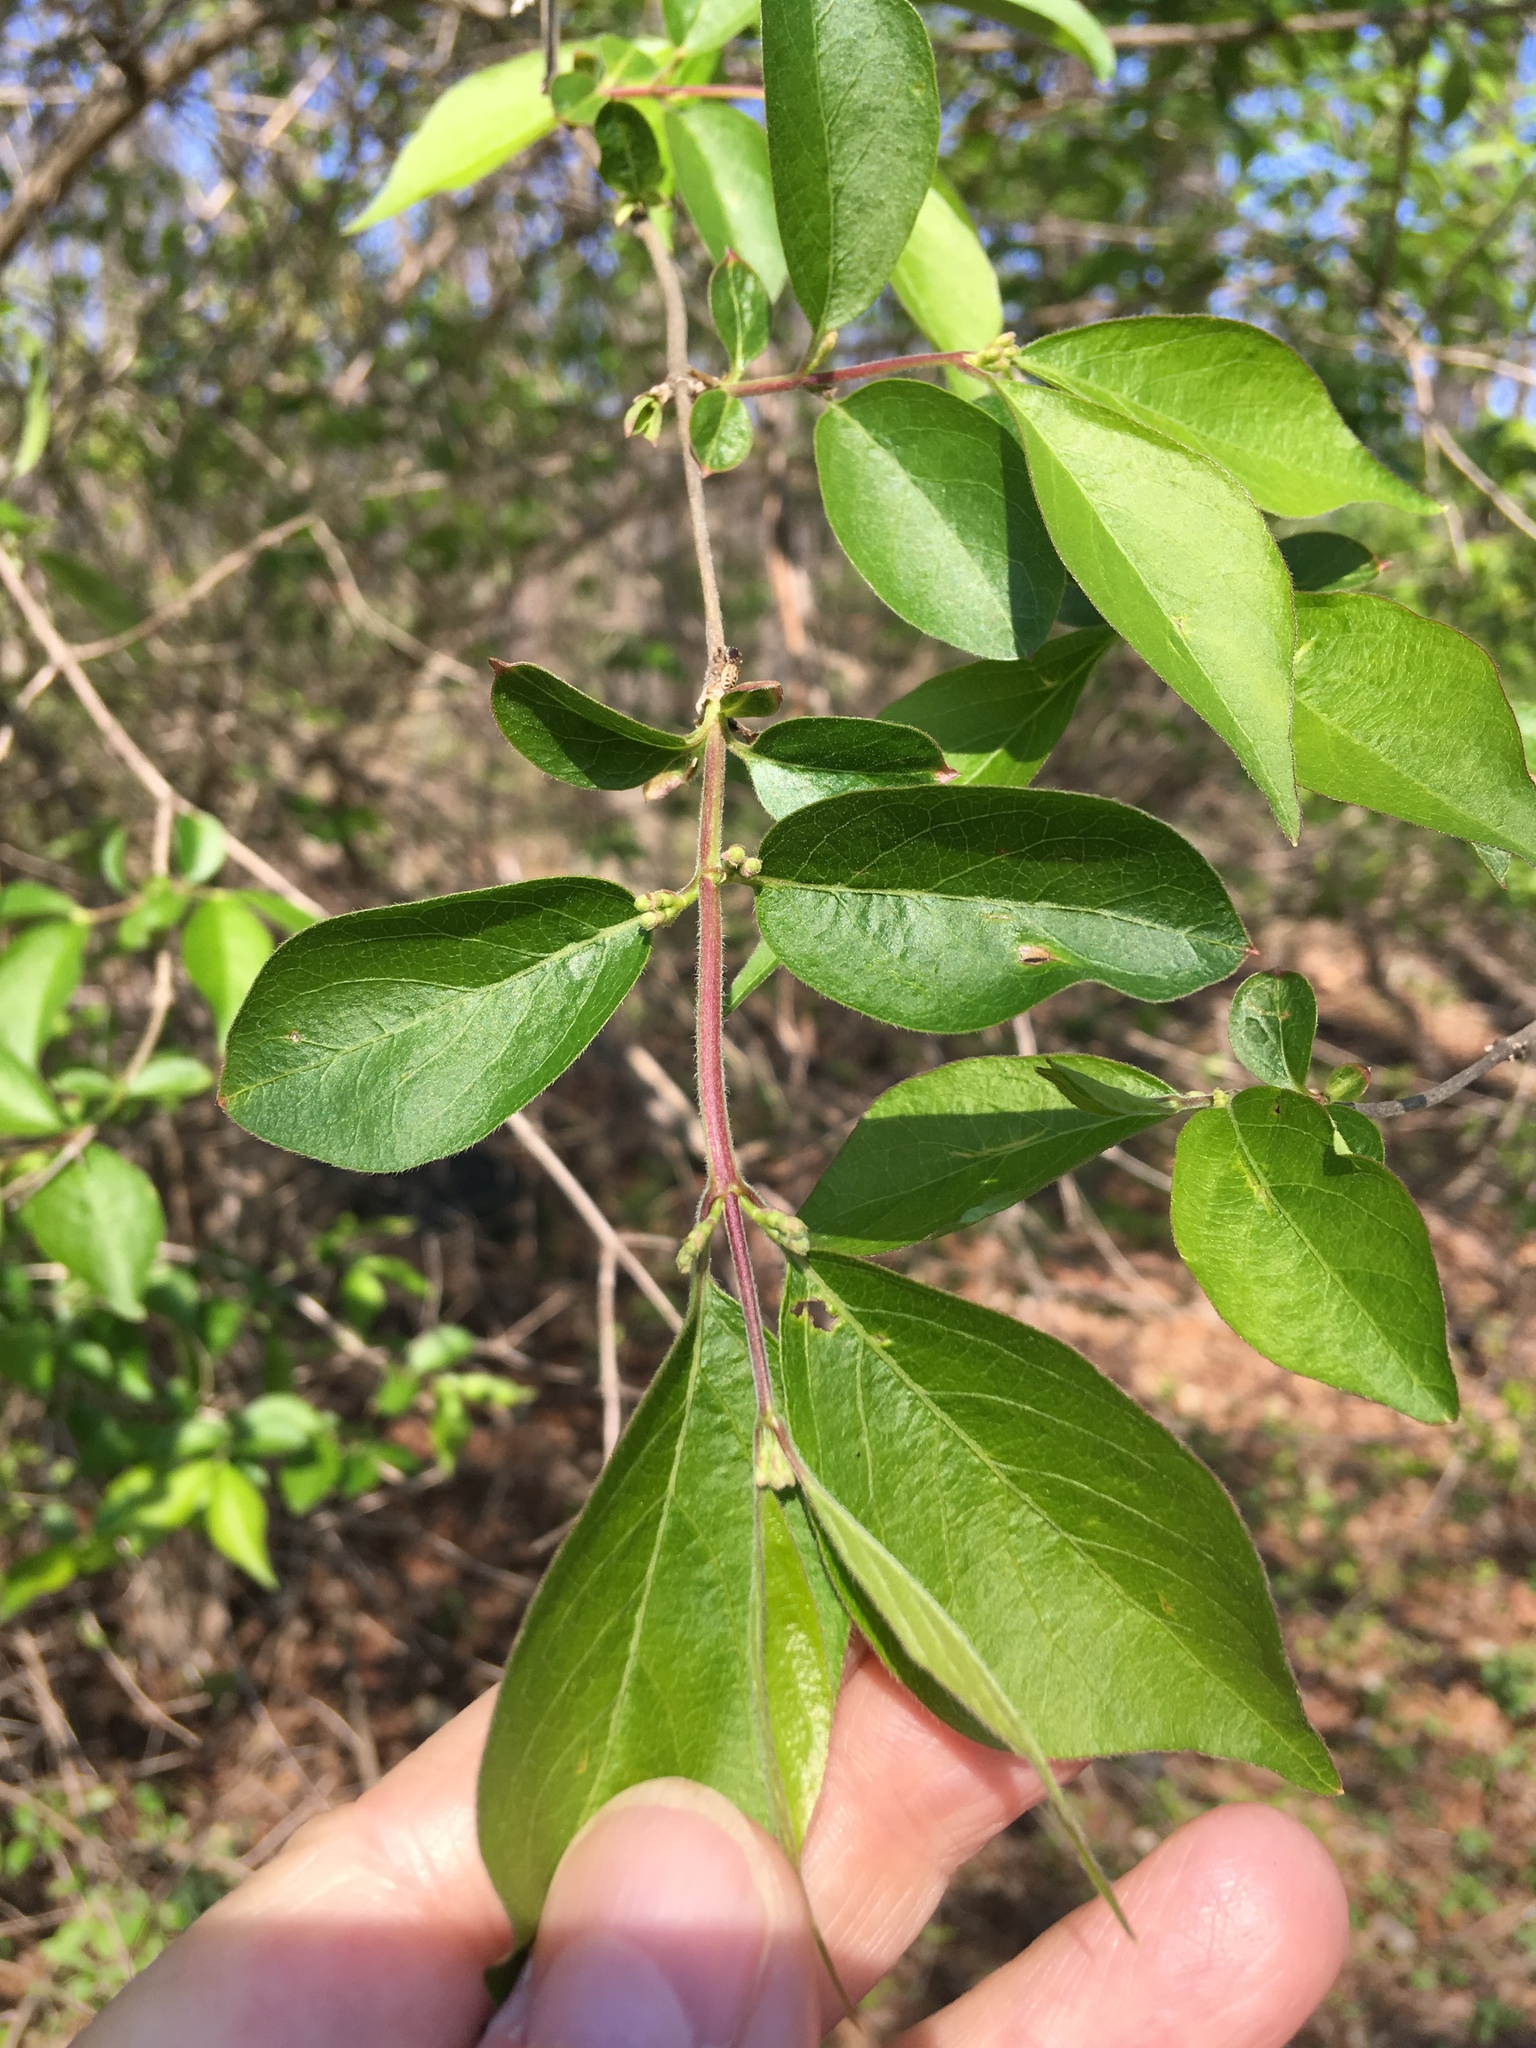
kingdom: Plantae
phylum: Tracheophyta
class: Magnoliopsida
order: Dipsacales
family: Caprifoliaceae
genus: Lonicera
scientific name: Lonicera maackii
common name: Amur honeysuckle
